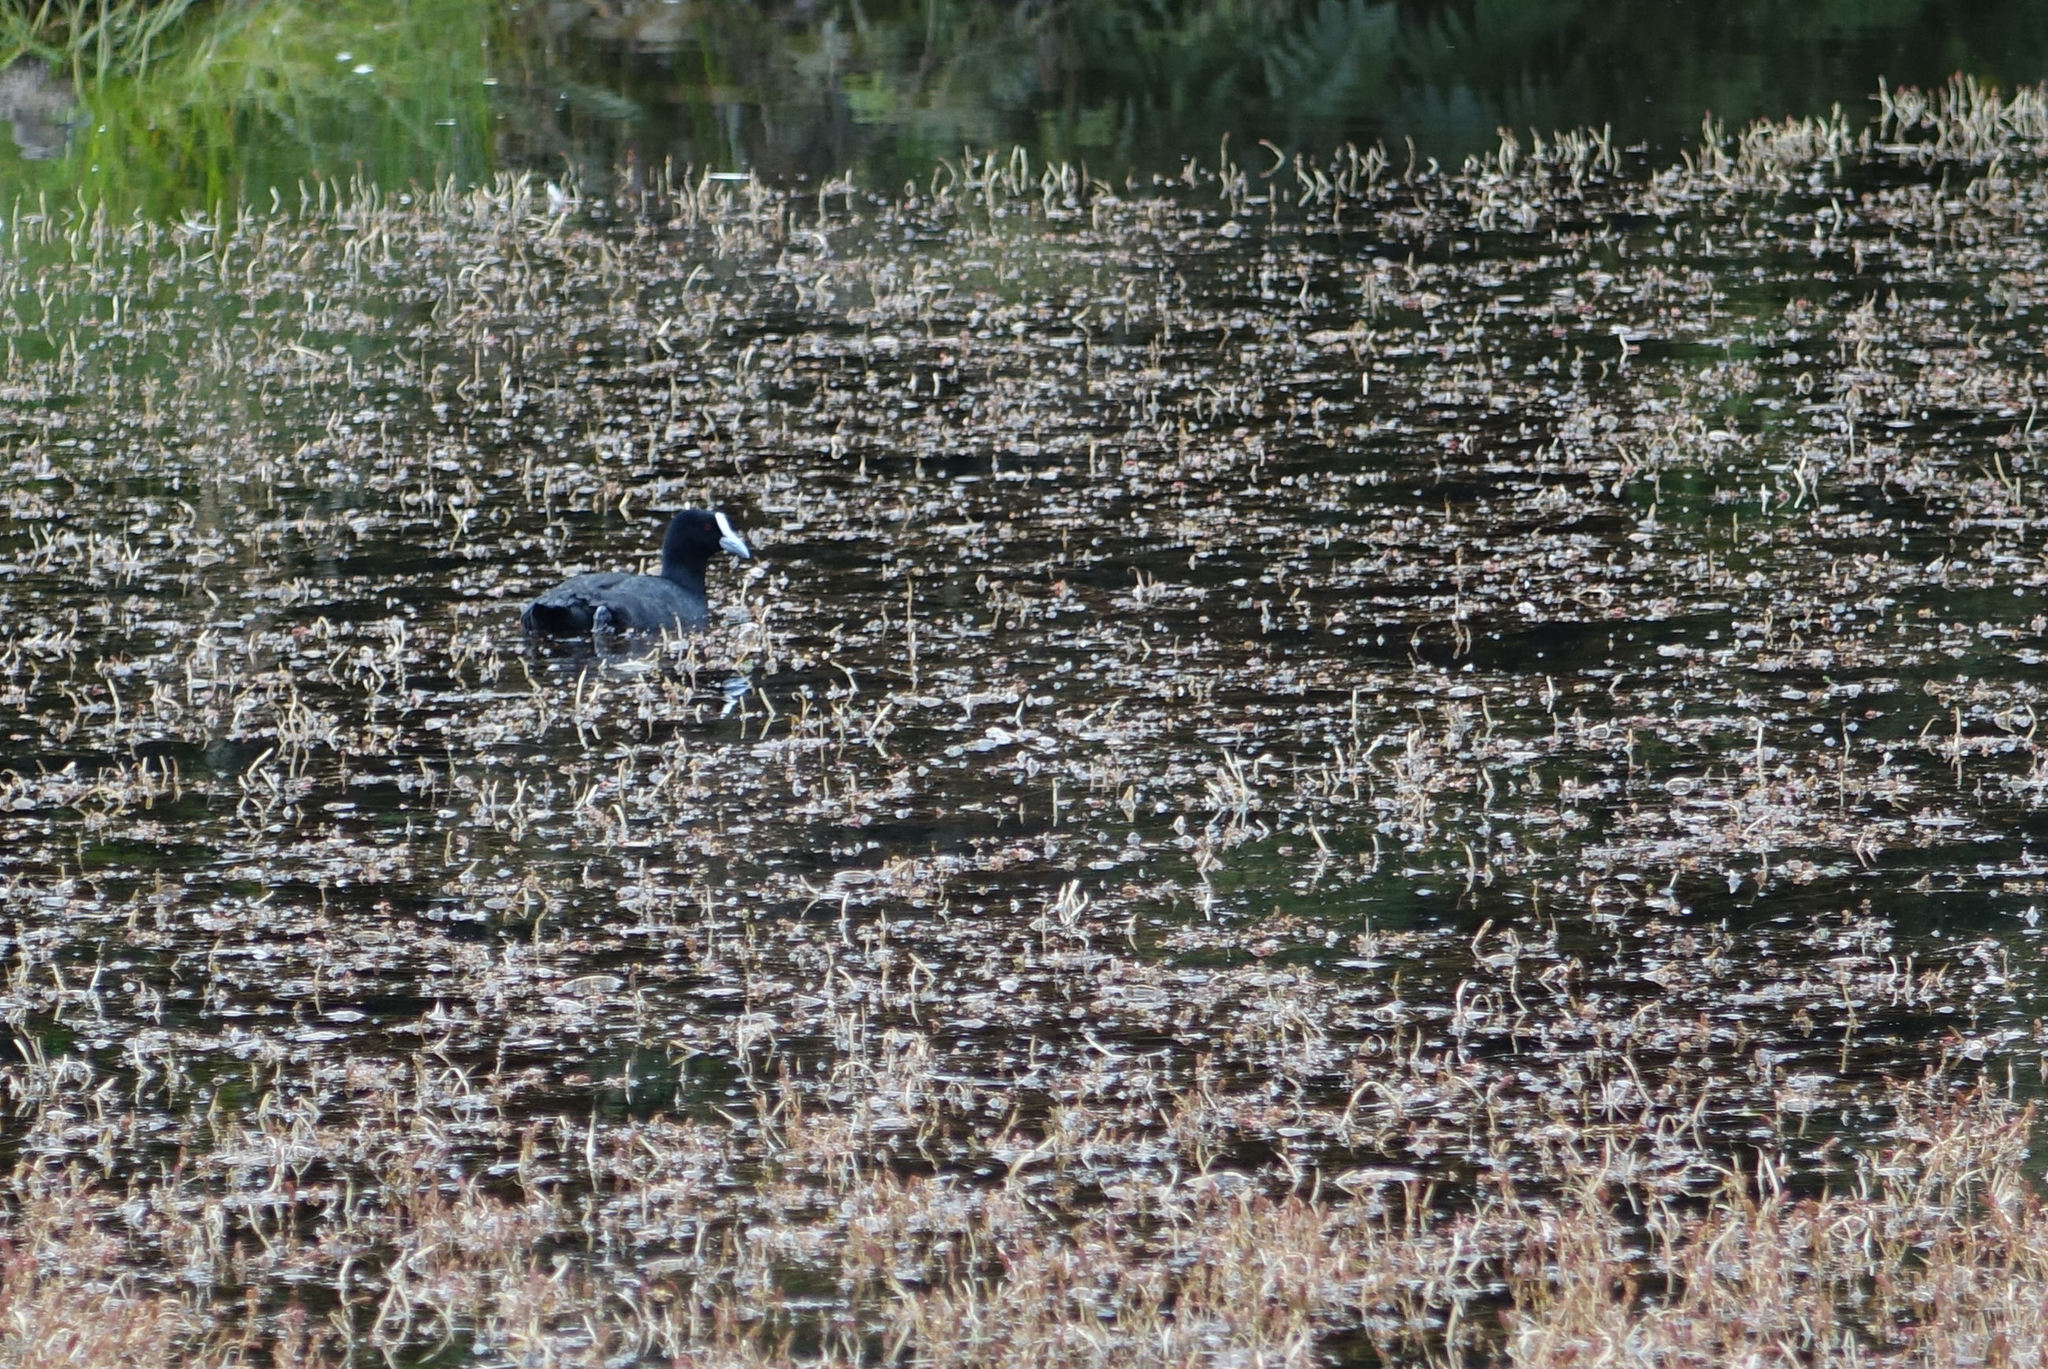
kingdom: Animalia
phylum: Chordata
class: Aves
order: Gruiformes
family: Rallidae
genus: Fulica
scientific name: Fulica atra
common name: Eurasian coot
